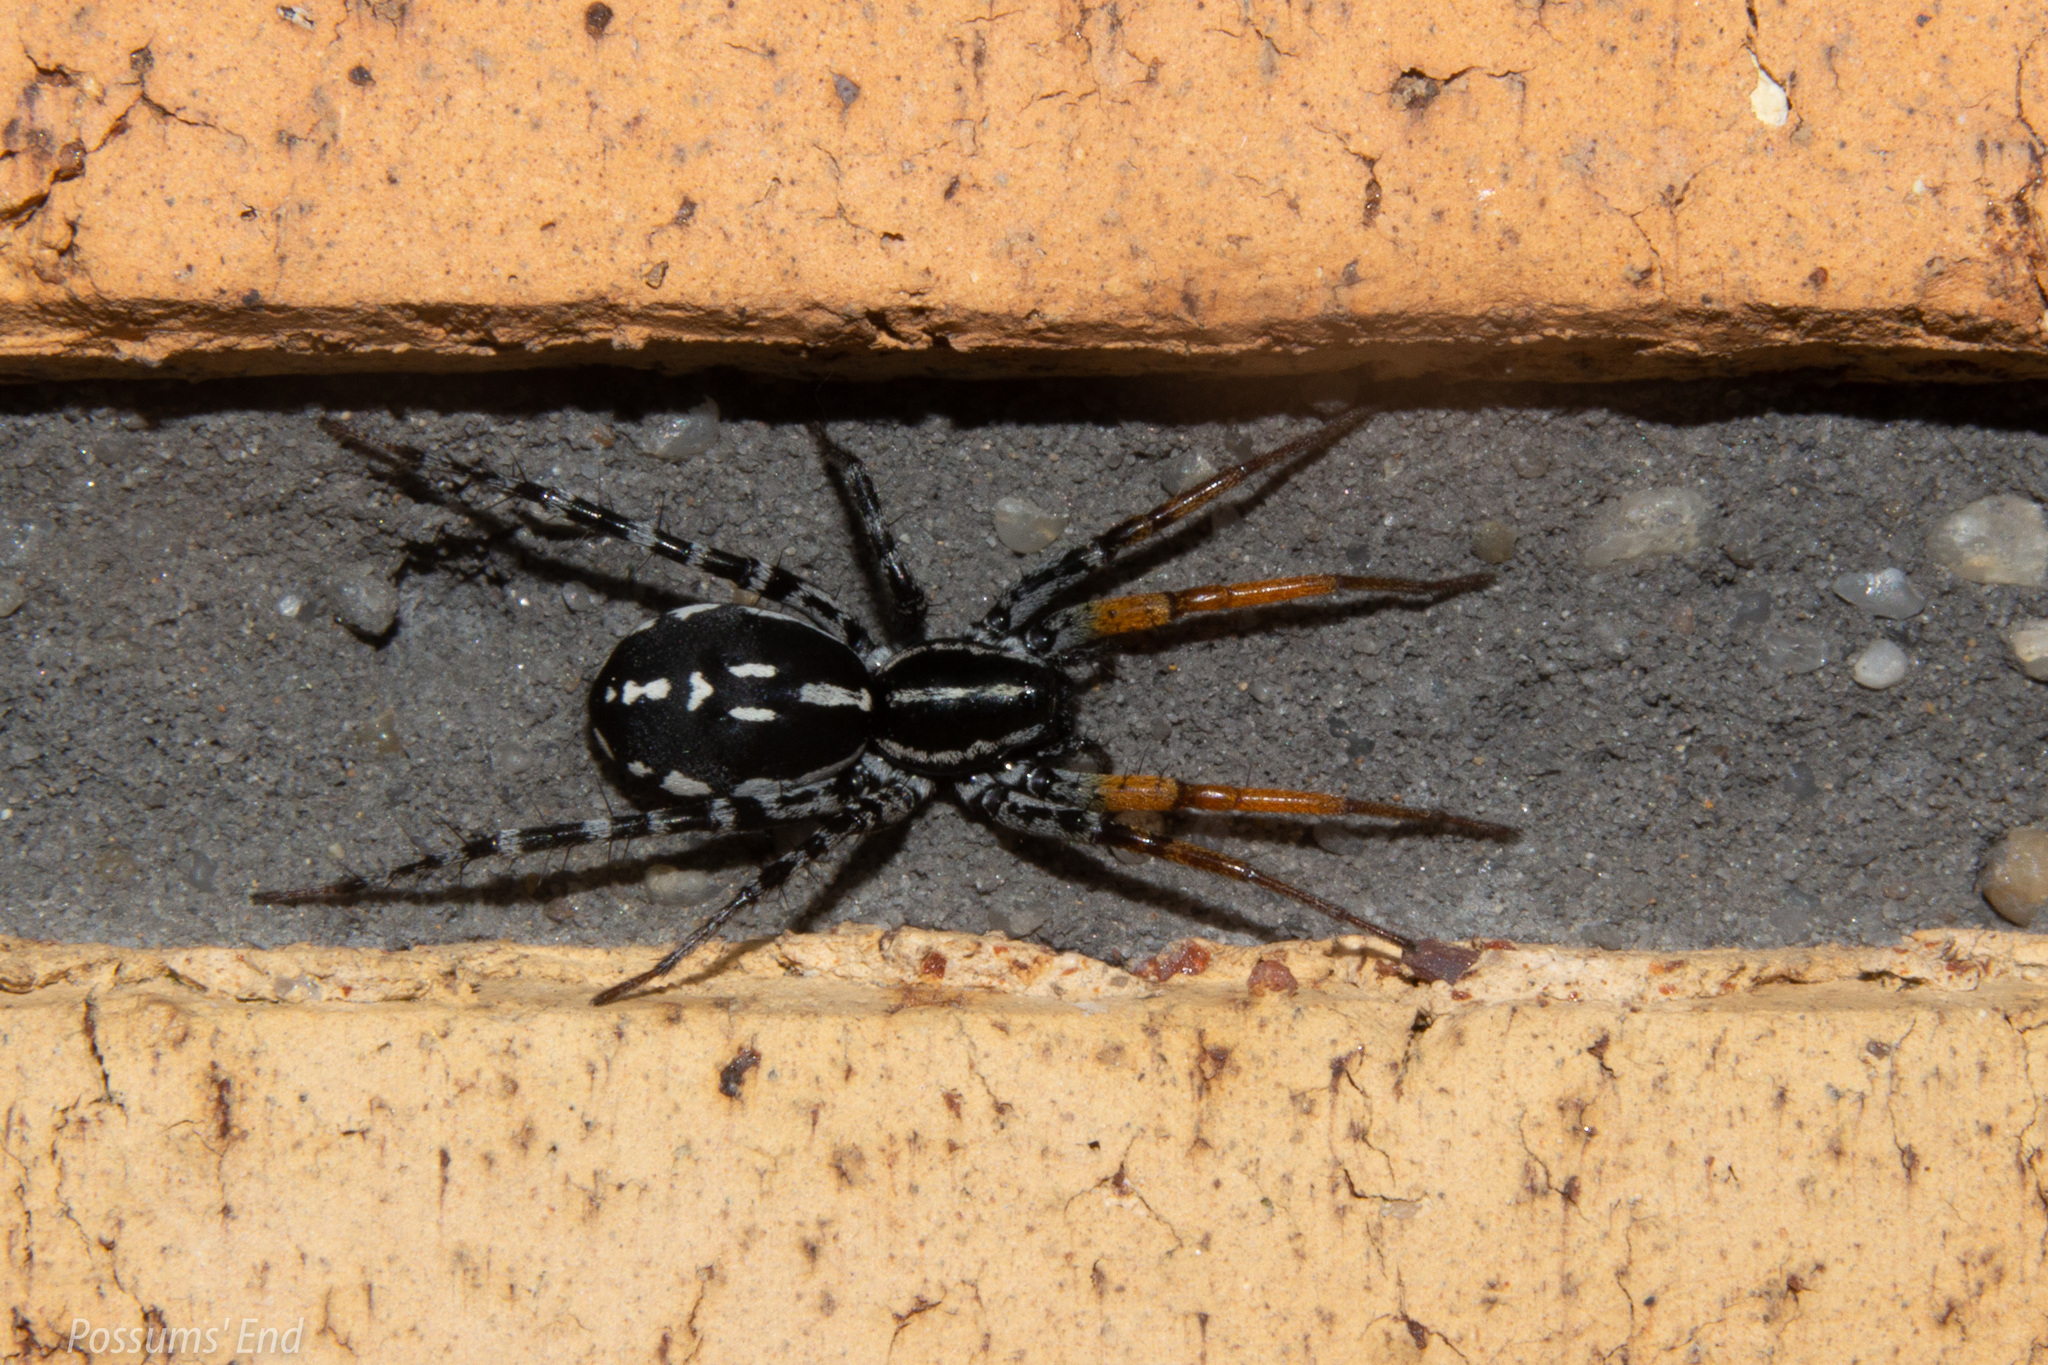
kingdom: Animalia
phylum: Arthropoda
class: Arachnida
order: Araneae
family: Corinnidae
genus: Nyssus
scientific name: Nyssus coloripes
